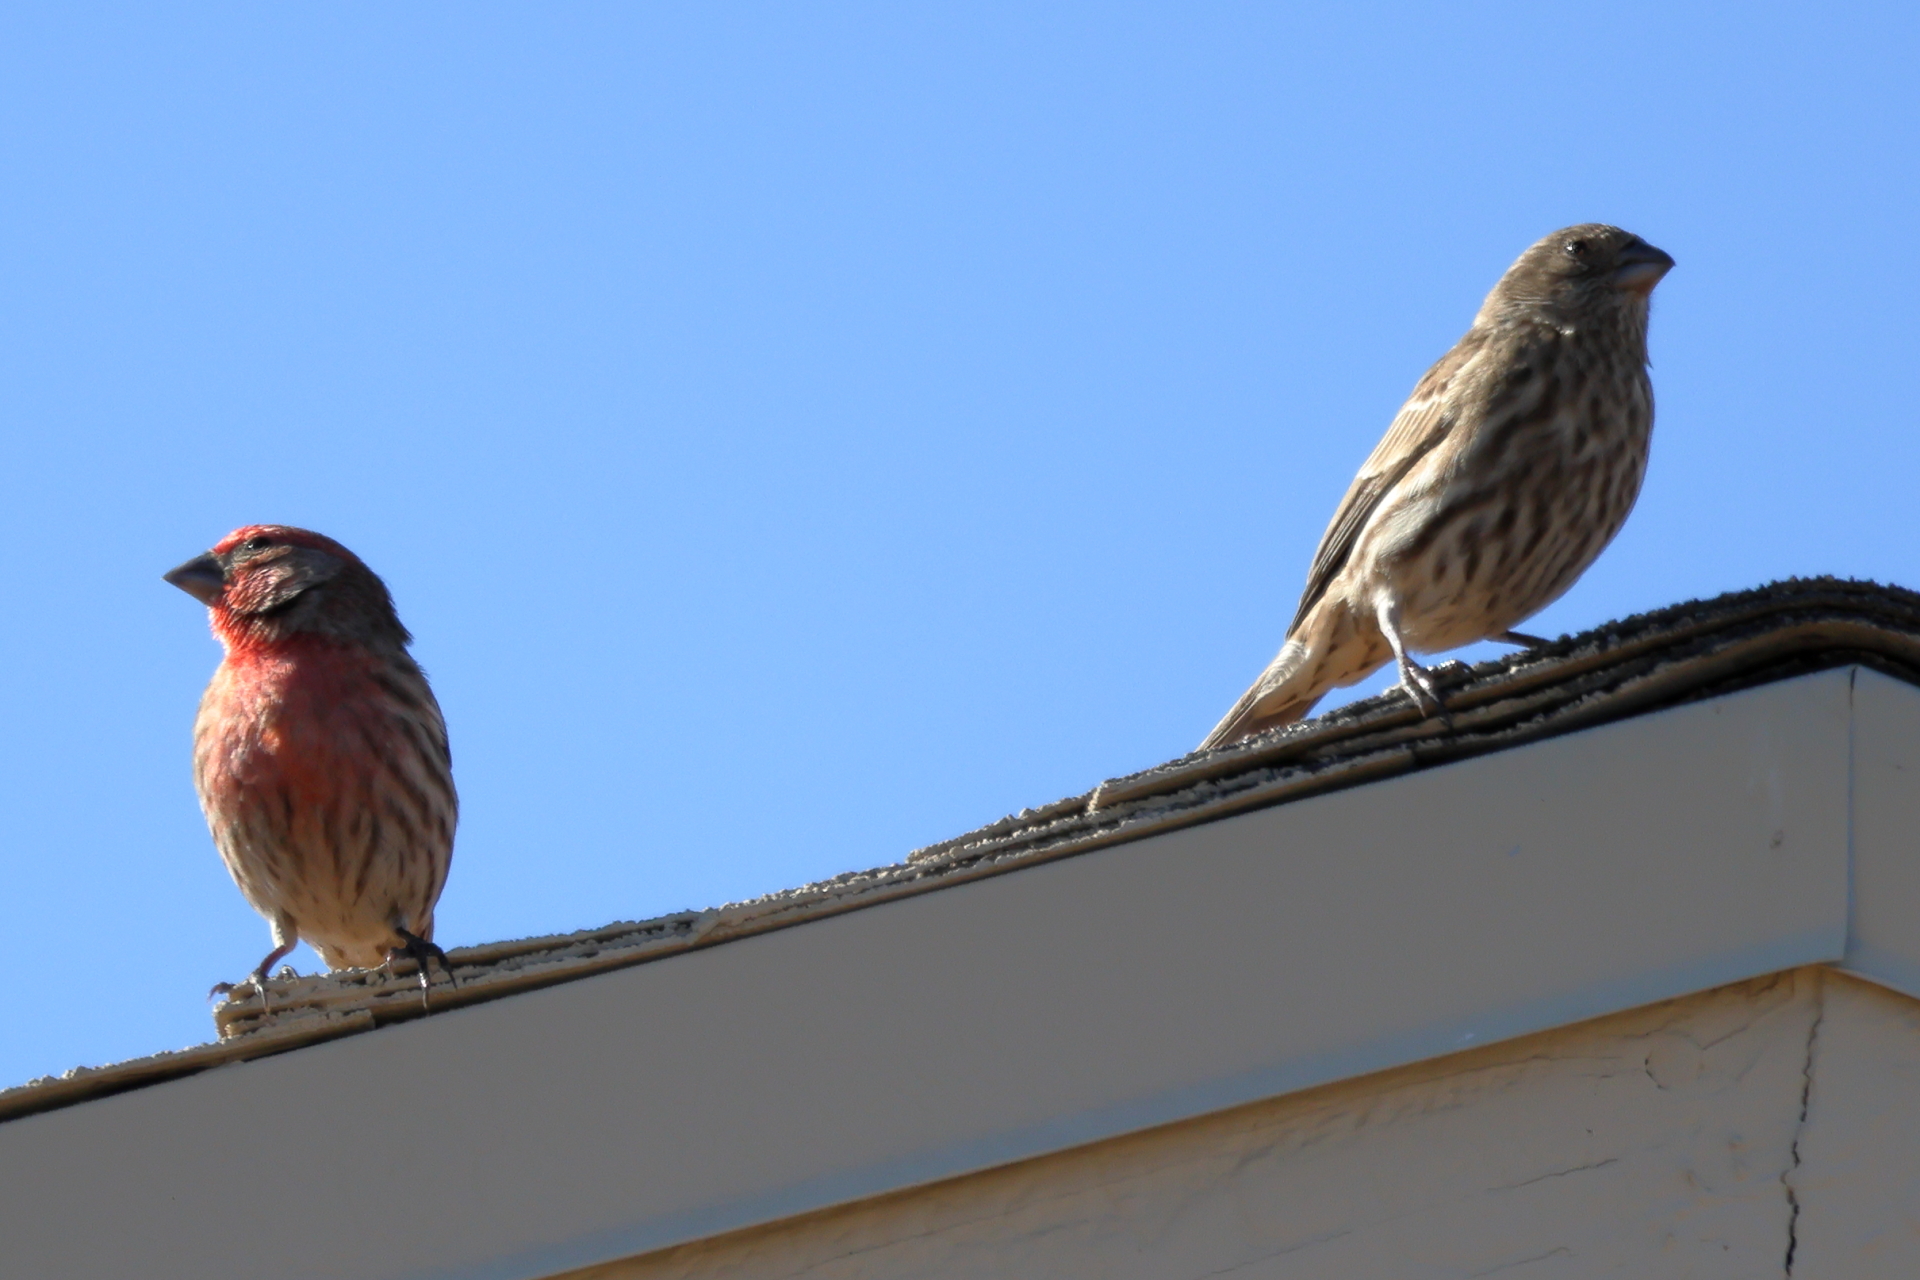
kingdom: Animalia
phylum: Chordata
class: Aves
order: Passeriformes
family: Fringillidae
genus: Haemorhous
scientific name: Haemorhous mexicanus
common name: House finch
